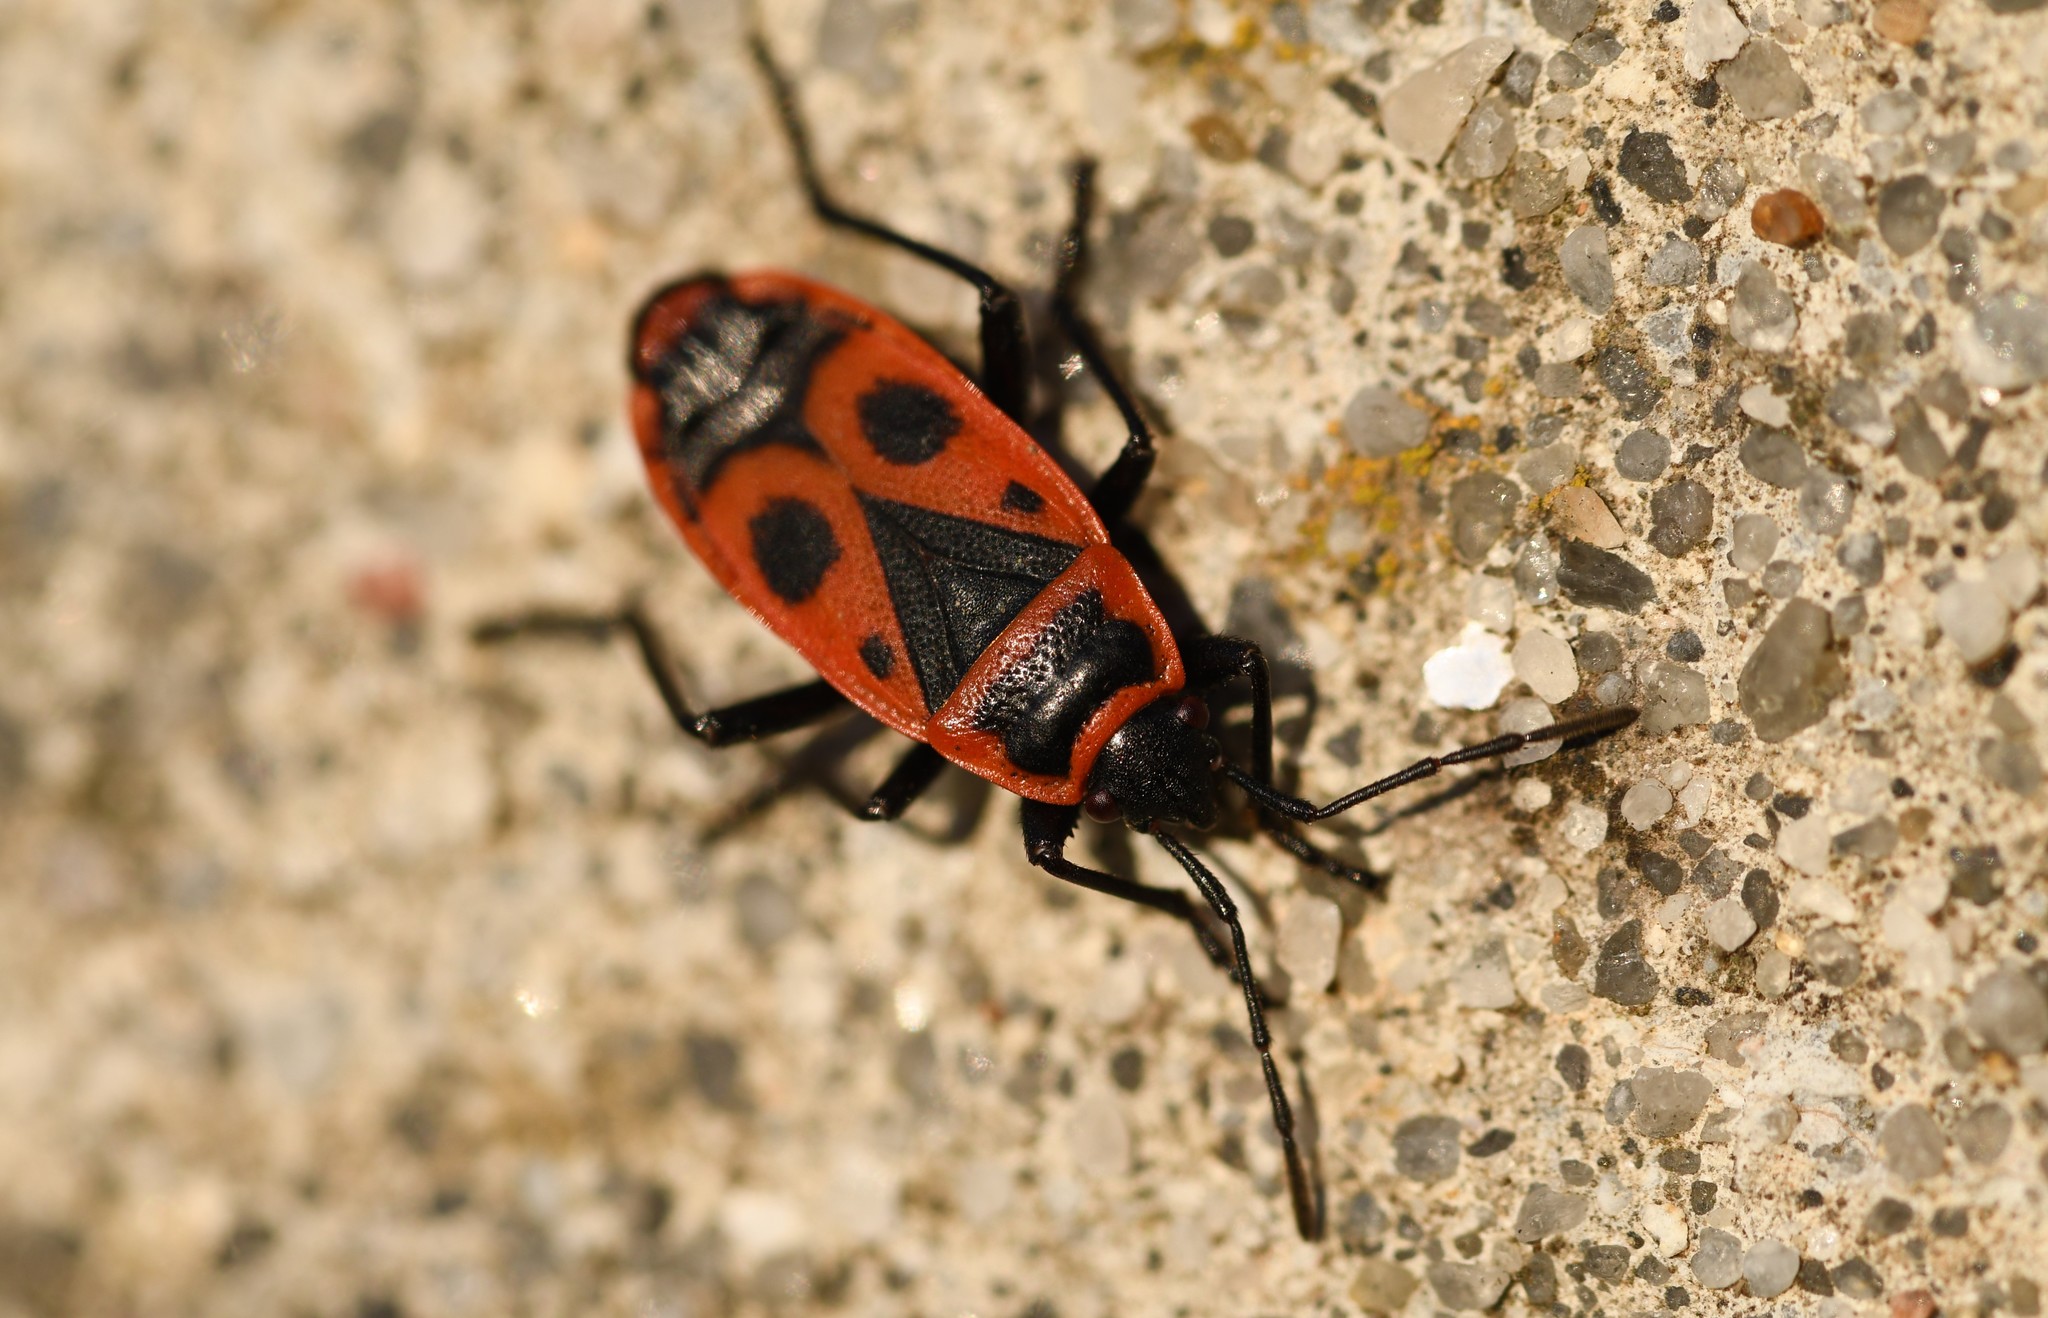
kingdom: Animalia
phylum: Arthropoda
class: Insecta
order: Hemiptera
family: Pyrrhocoridae
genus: Pyrrhocoris
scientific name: Pyrrhocoris apterus
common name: Firebug
